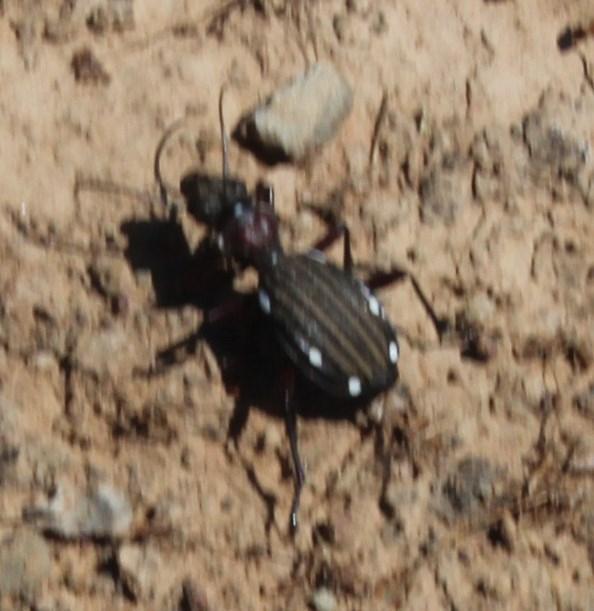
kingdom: Animalia
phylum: Arthropoda
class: Insecta
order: Coleoptera
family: Carabidae
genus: Anthia
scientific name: Anthia decemguttata
